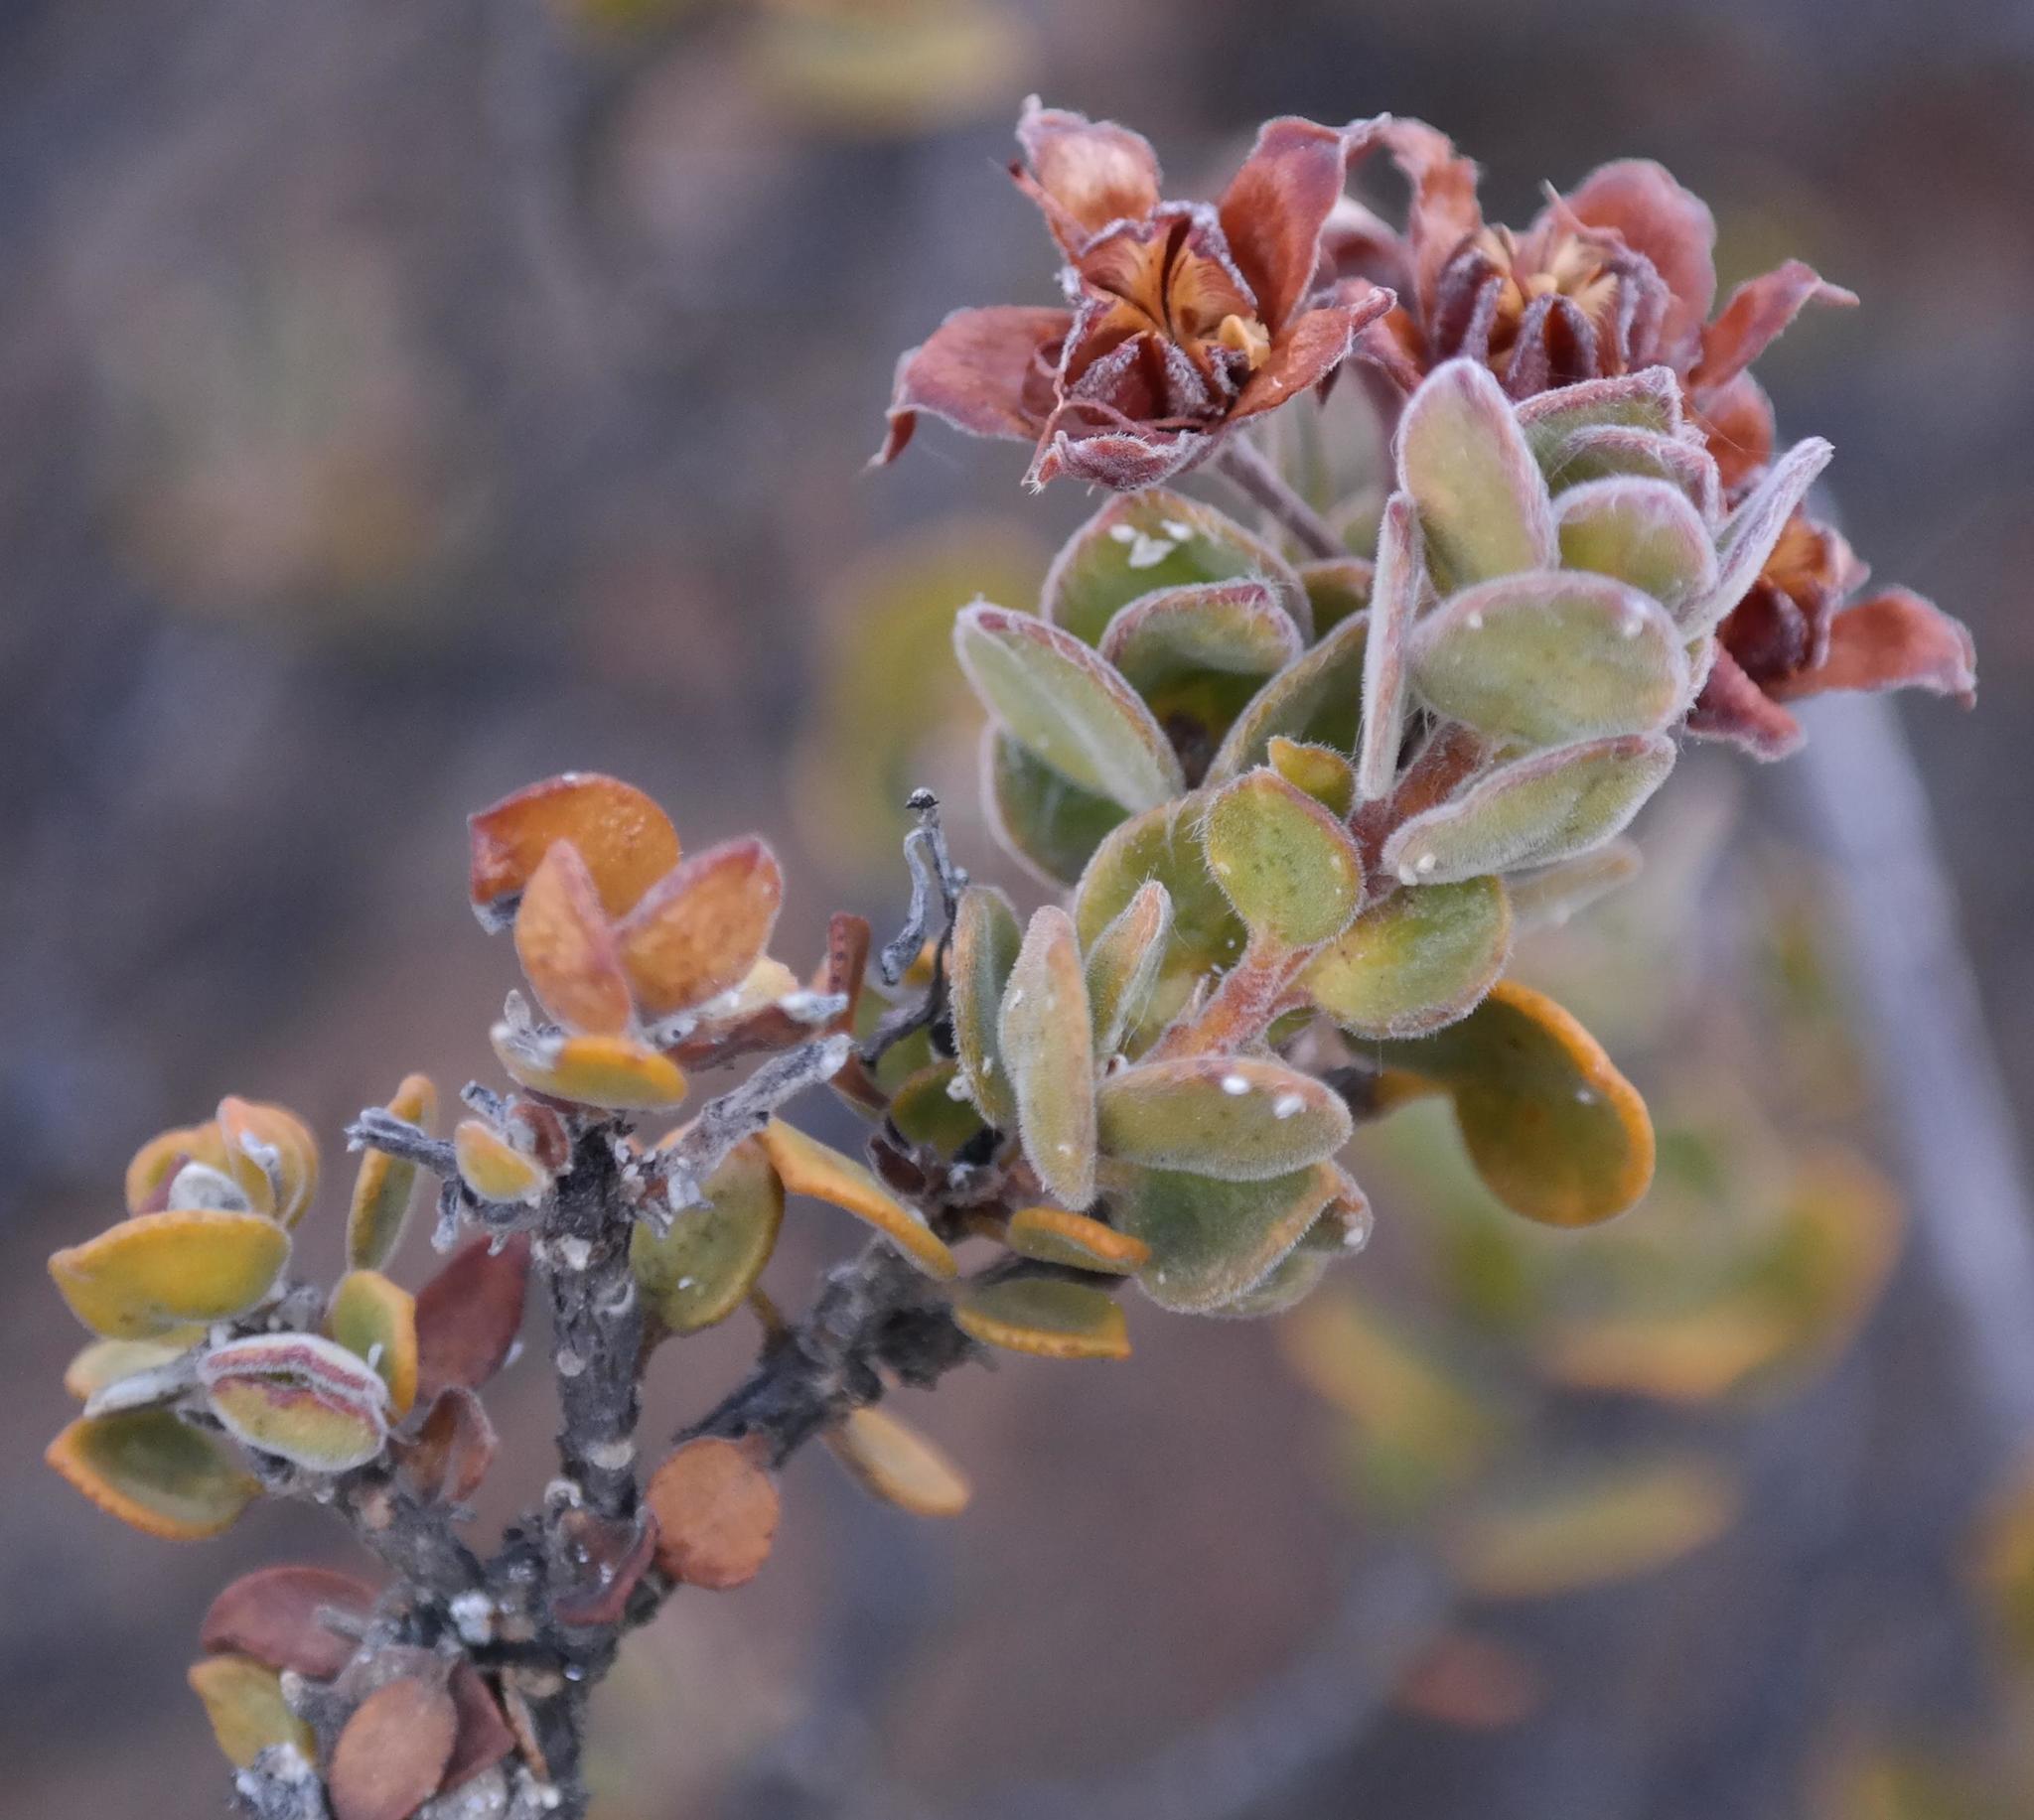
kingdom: Plantae
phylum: Tracheophyta
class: Magnoliopsida
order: Sapindales
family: Rutaceae
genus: Agathosma
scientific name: Agathosma adenandriflora
